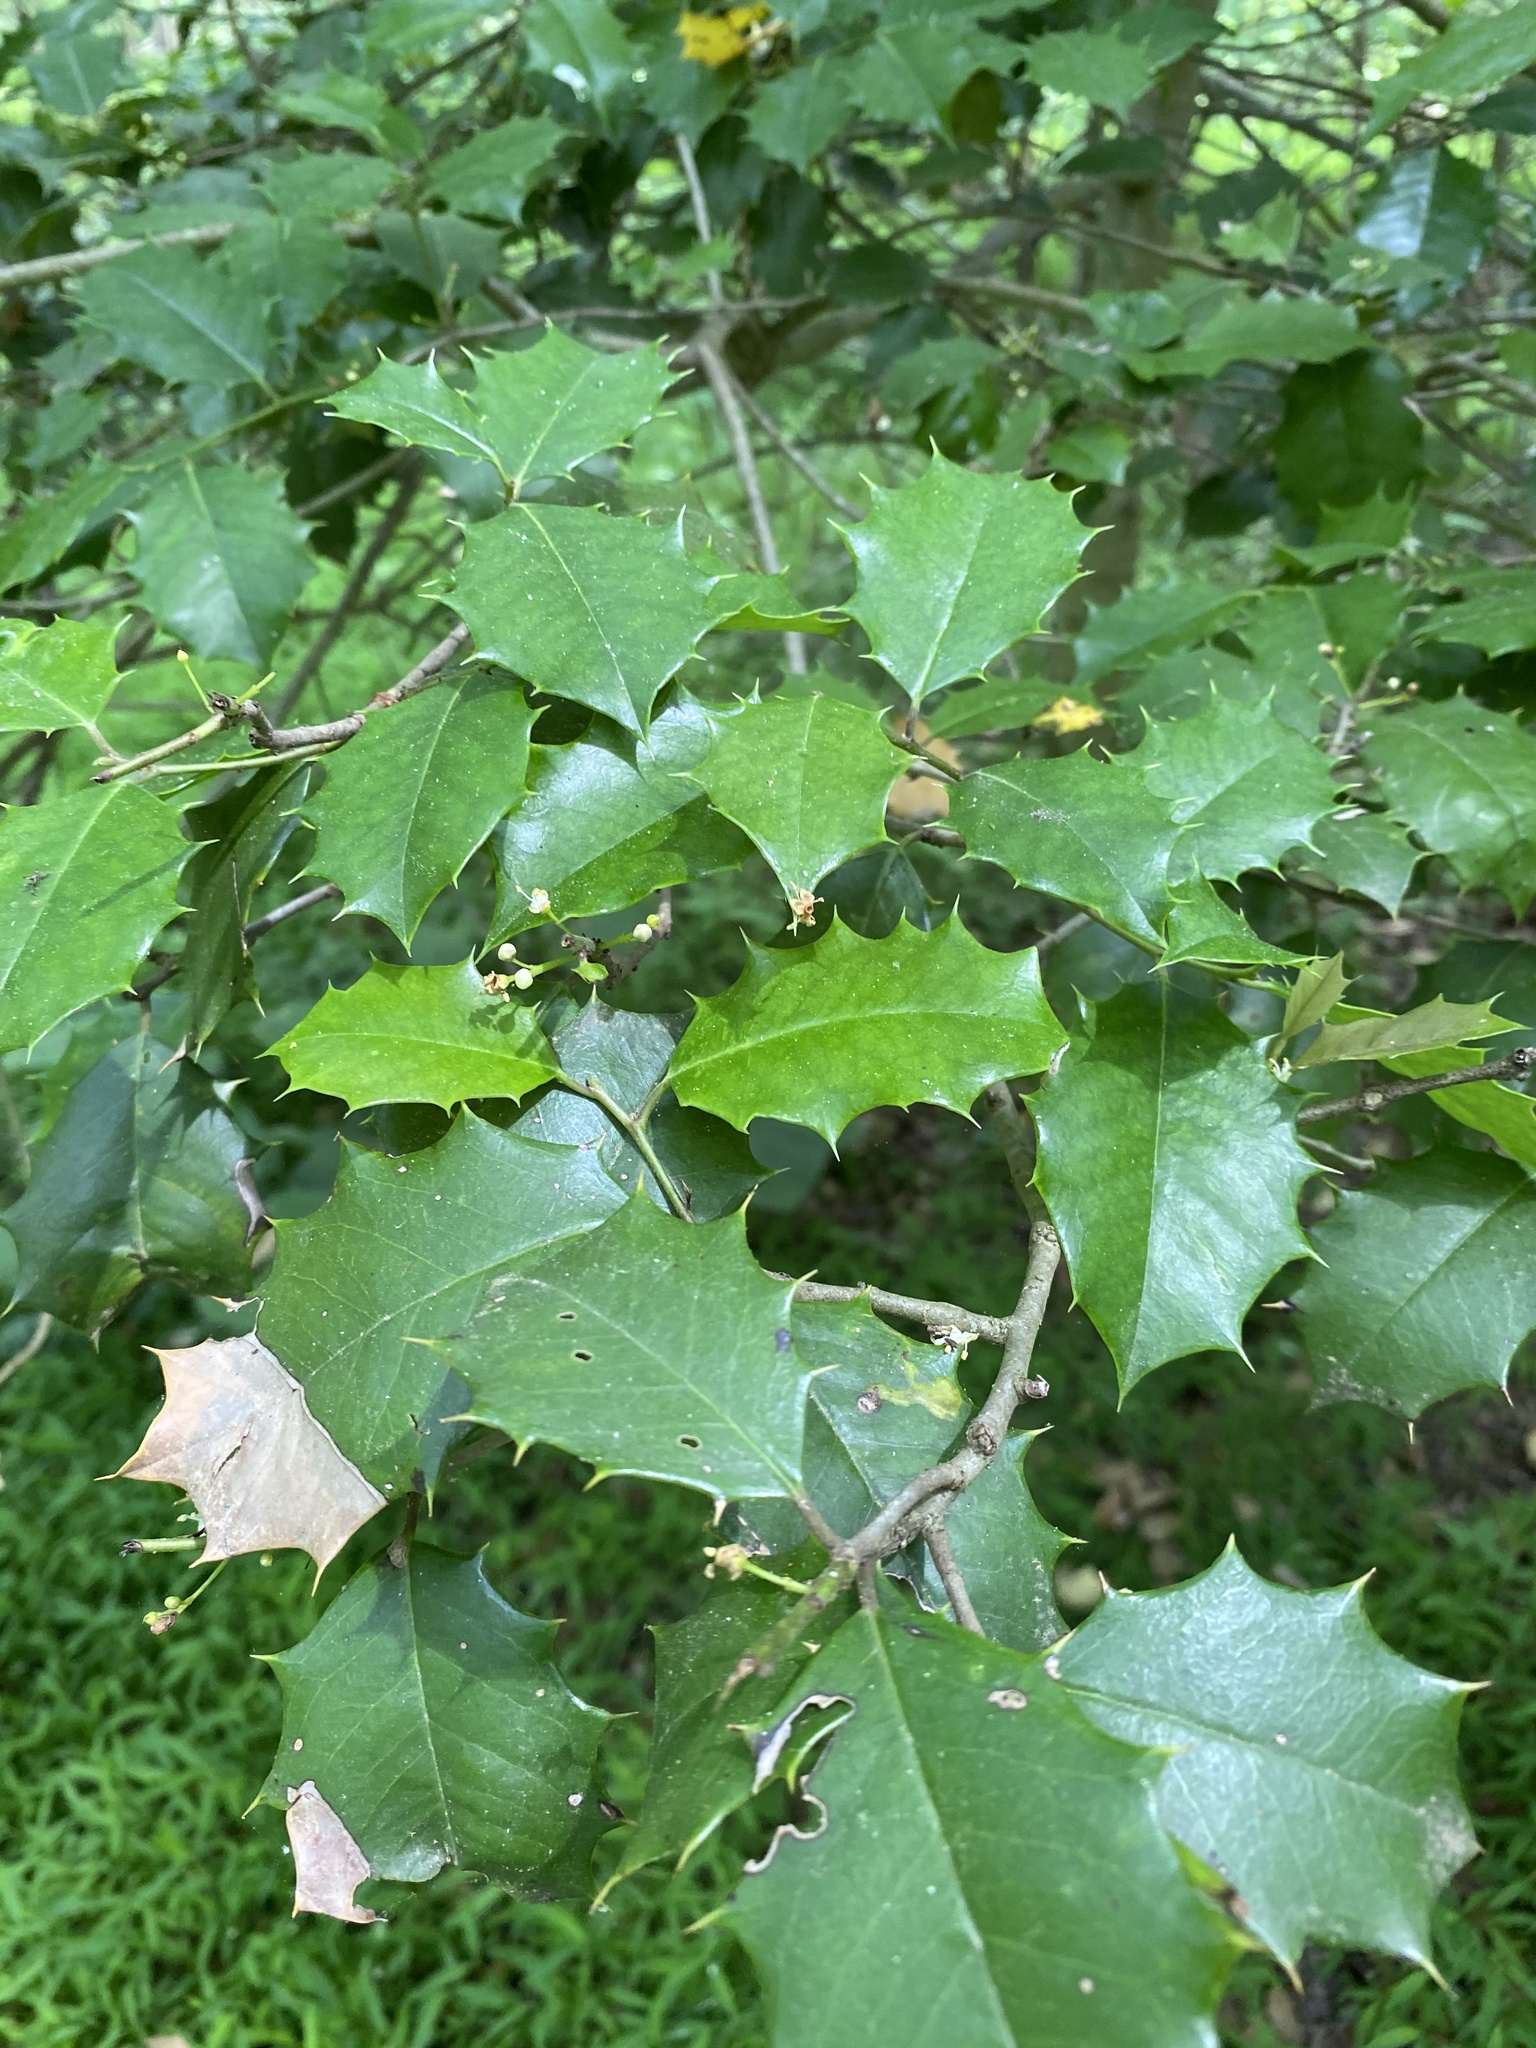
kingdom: Plantae
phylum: Tracheophyta
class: Magnoliopsida
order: Aquifoliales
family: Aquifoliaceae
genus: Ilex
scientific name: Ilex opaca
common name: American holly
